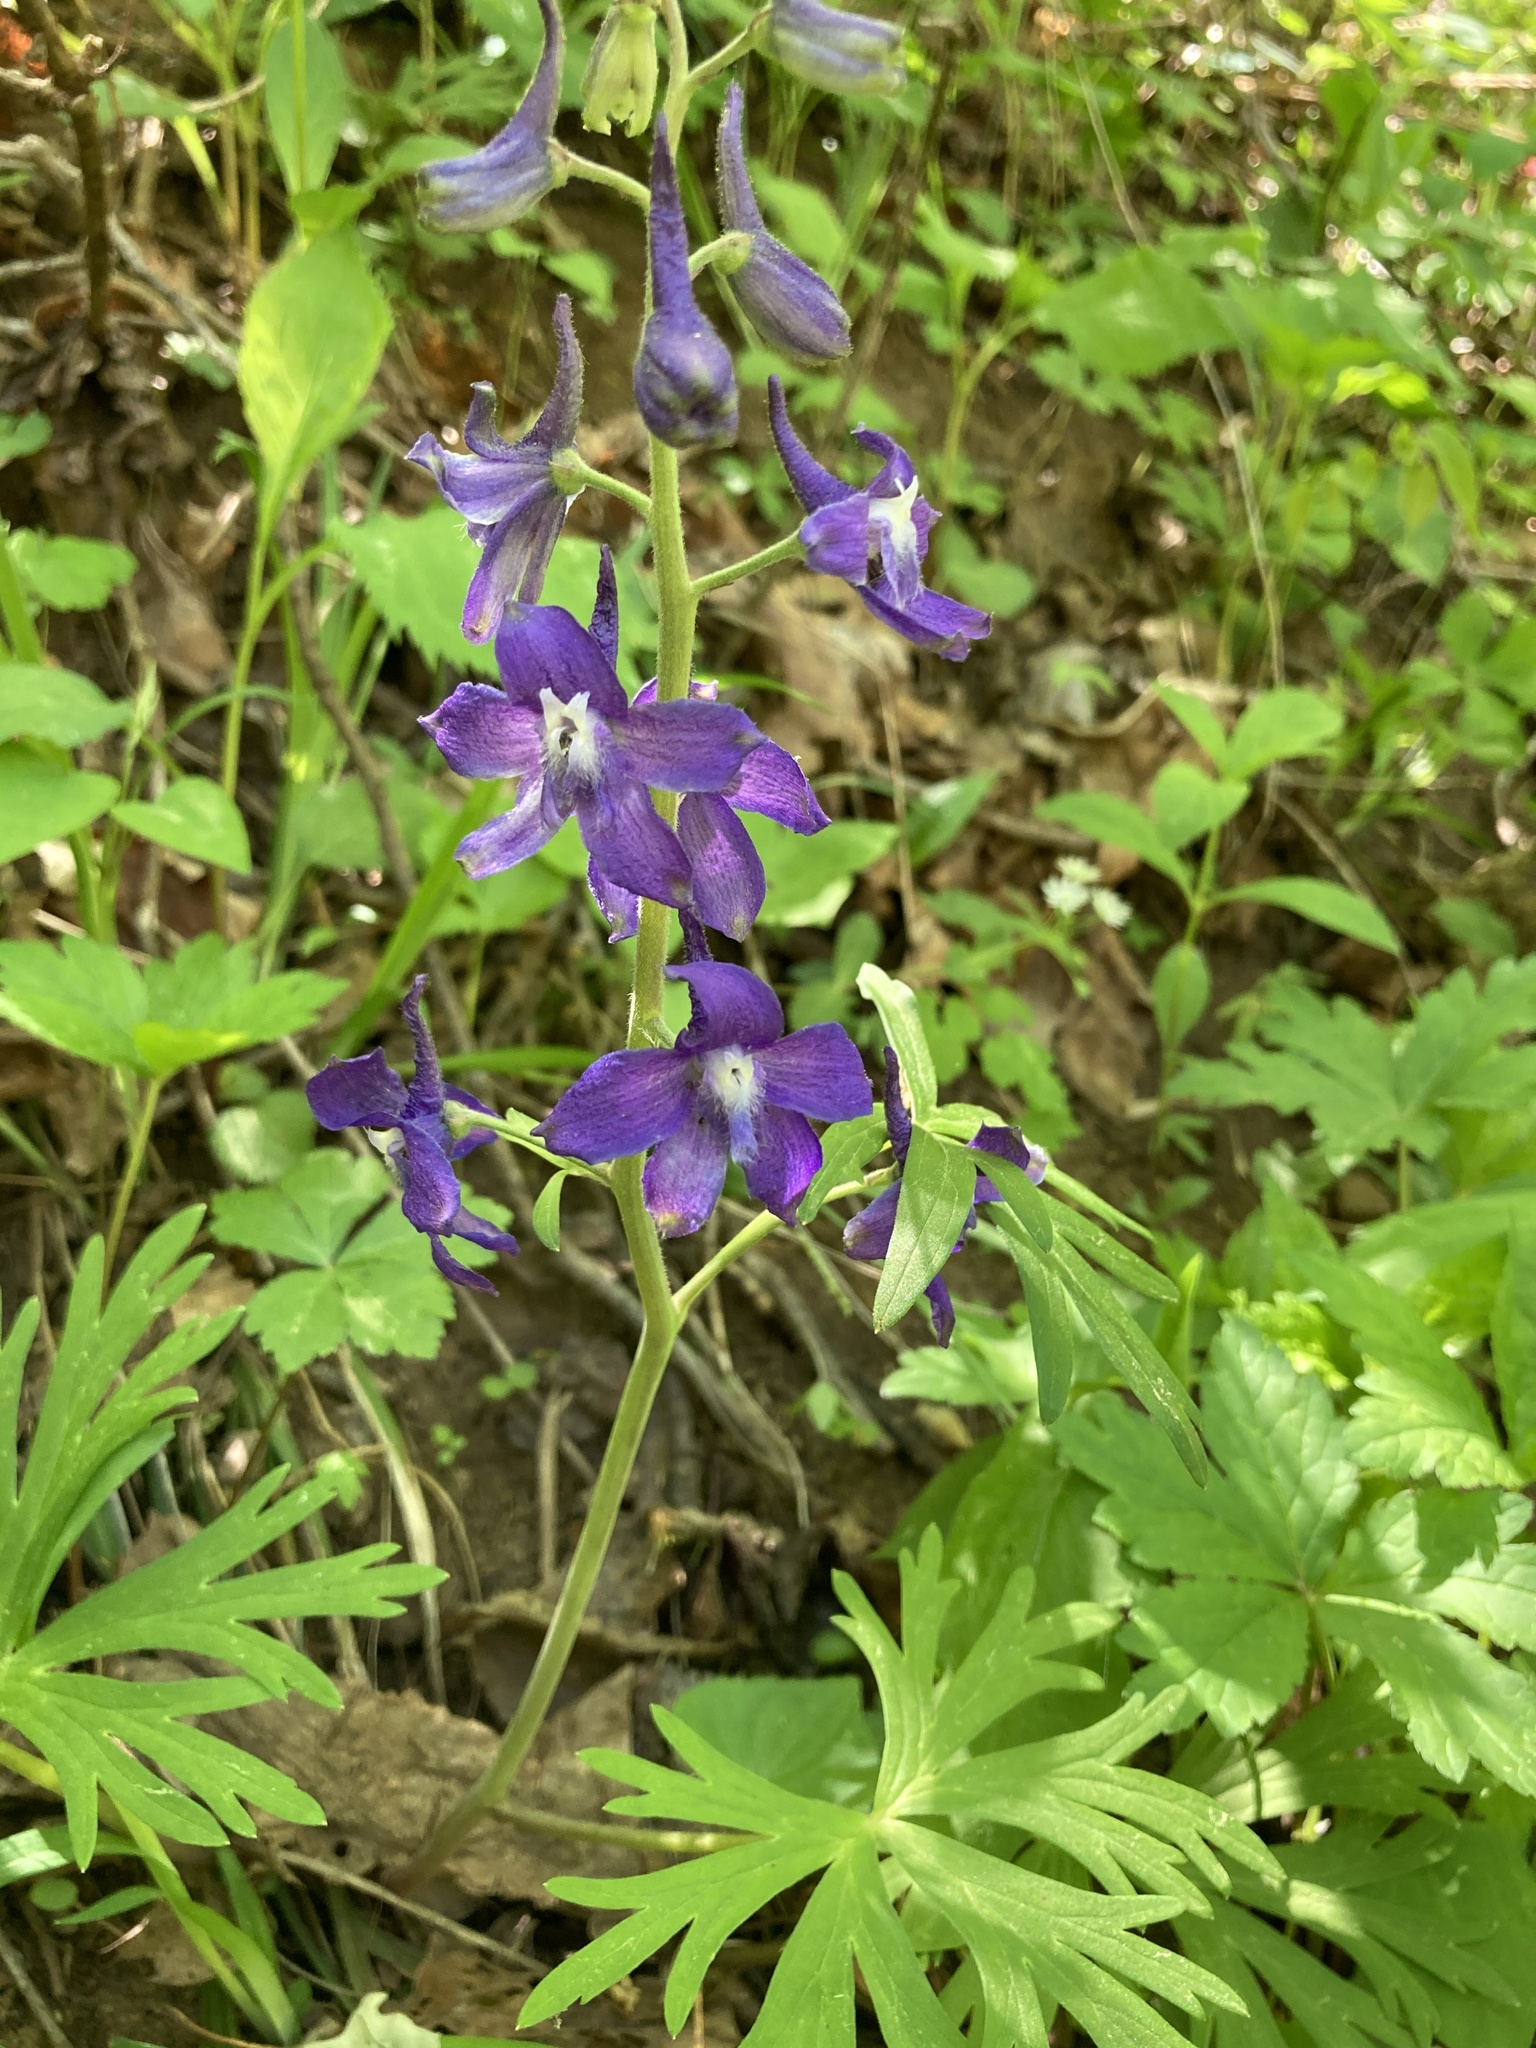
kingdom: Plantae
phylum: Tracheophyta
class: Magnoliopsida
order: Ranunculales
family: Ranunculaceae
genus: Delphinium
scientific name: Delphinium tricorne
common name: Dwarf larkspur
